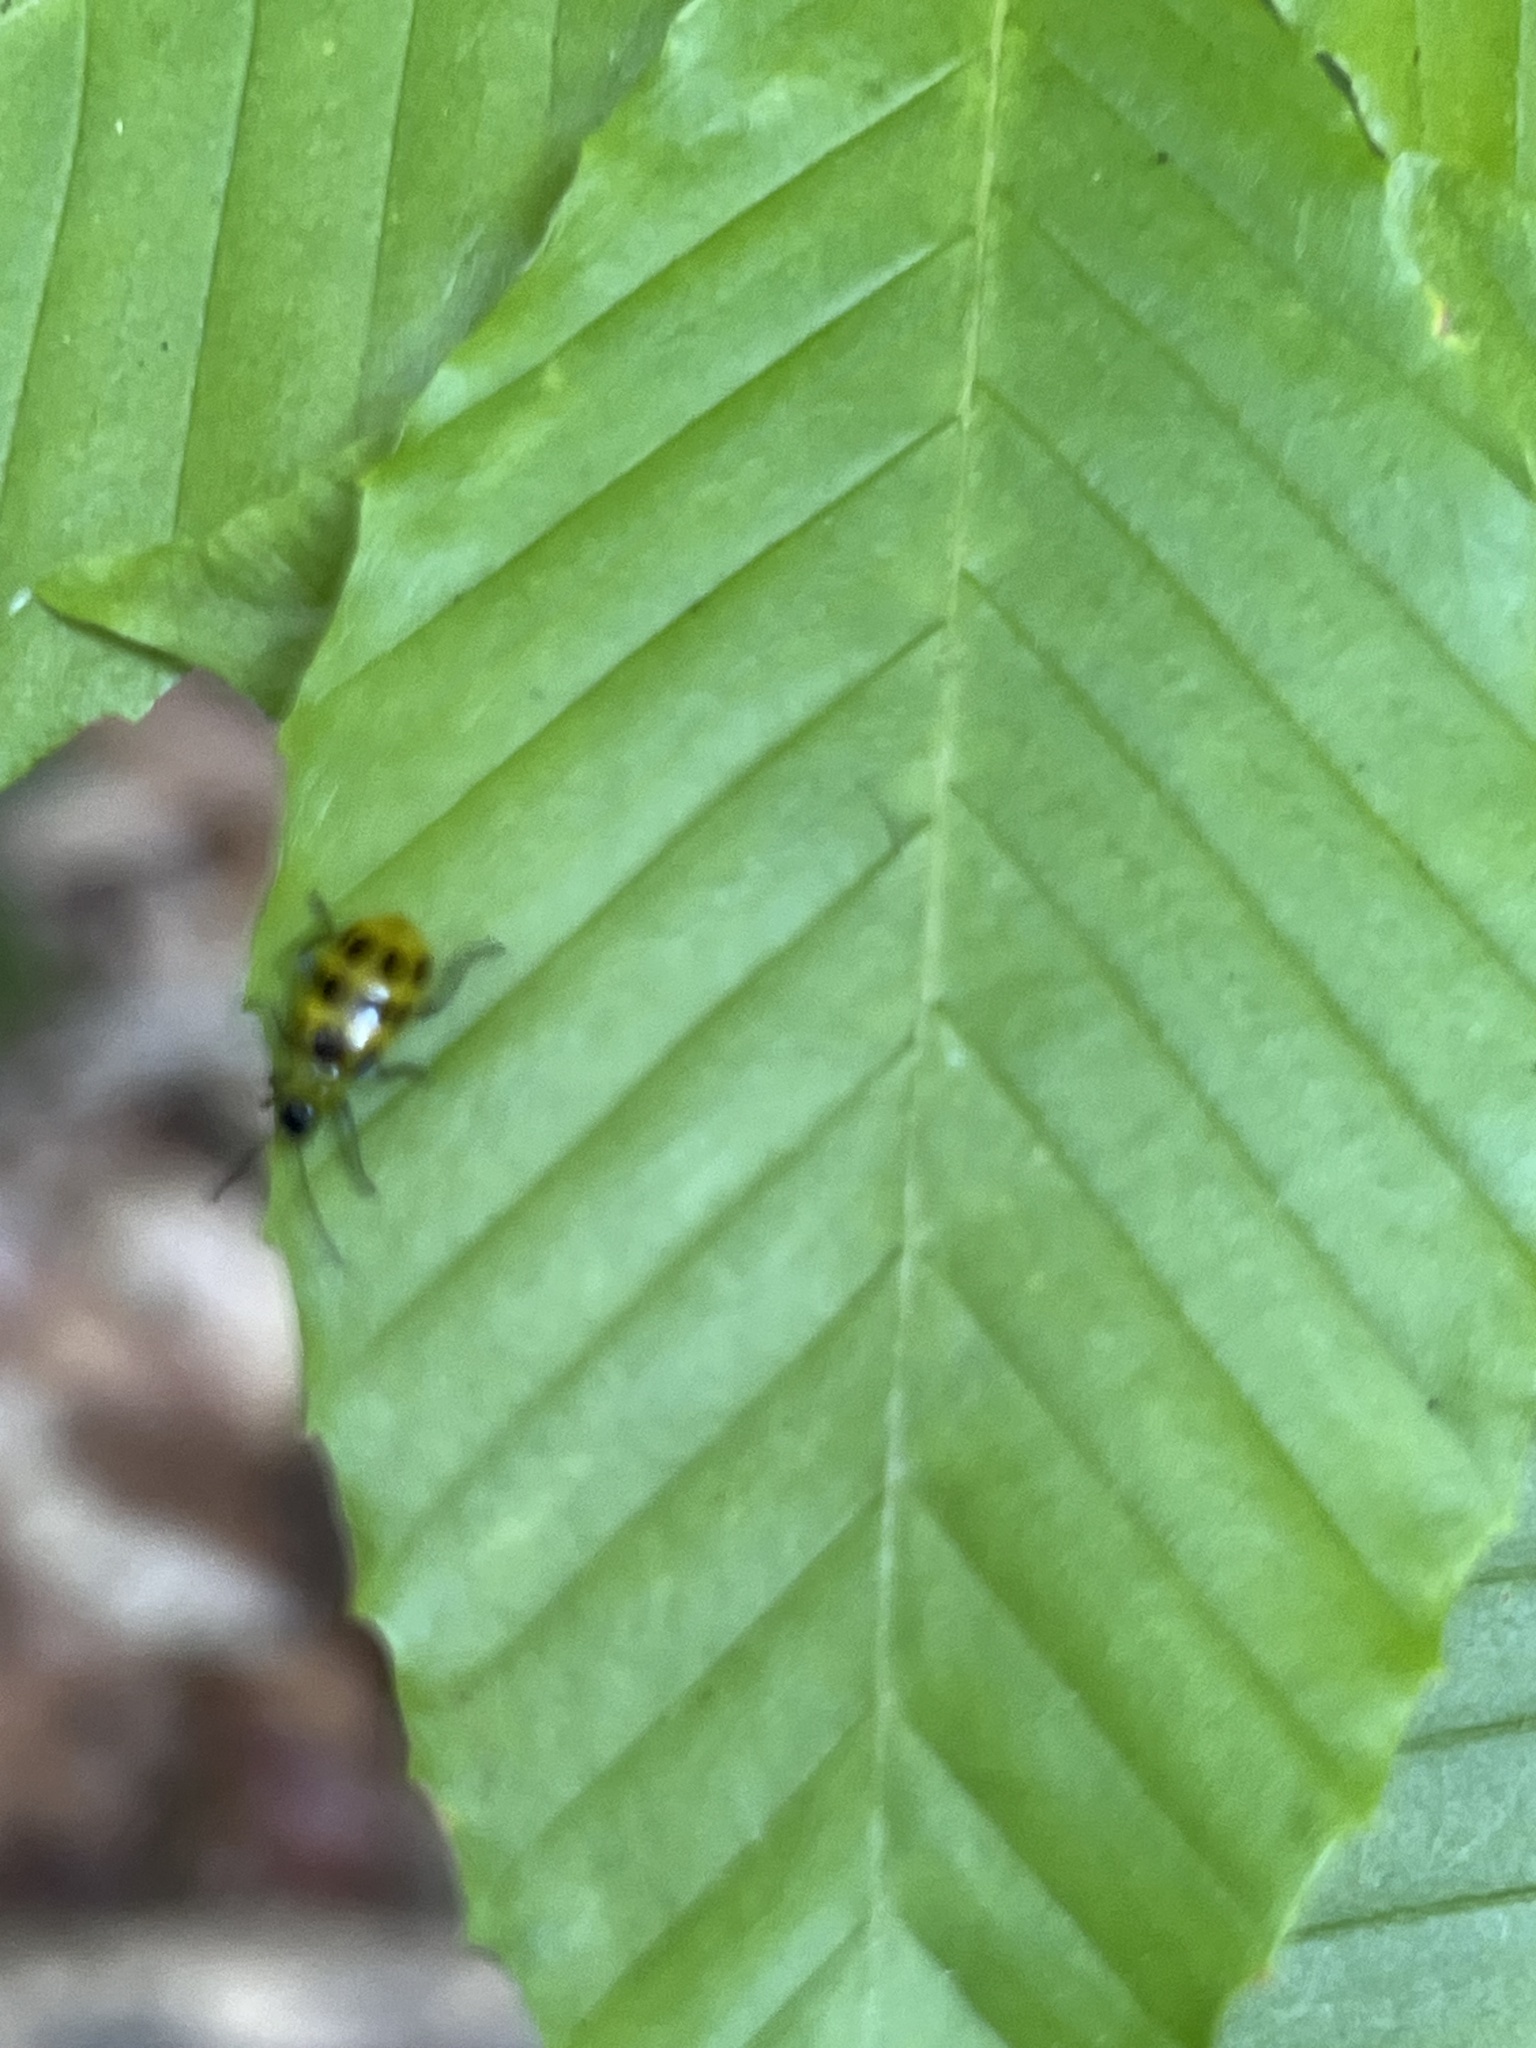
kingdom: Animalia
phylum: Arthropoda
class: Insecta
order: Coleoptera
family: Chrysomelidae
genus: Diabrotica
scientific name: Diabrotica undecimpunctata
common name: Spotted cucumber beetle
